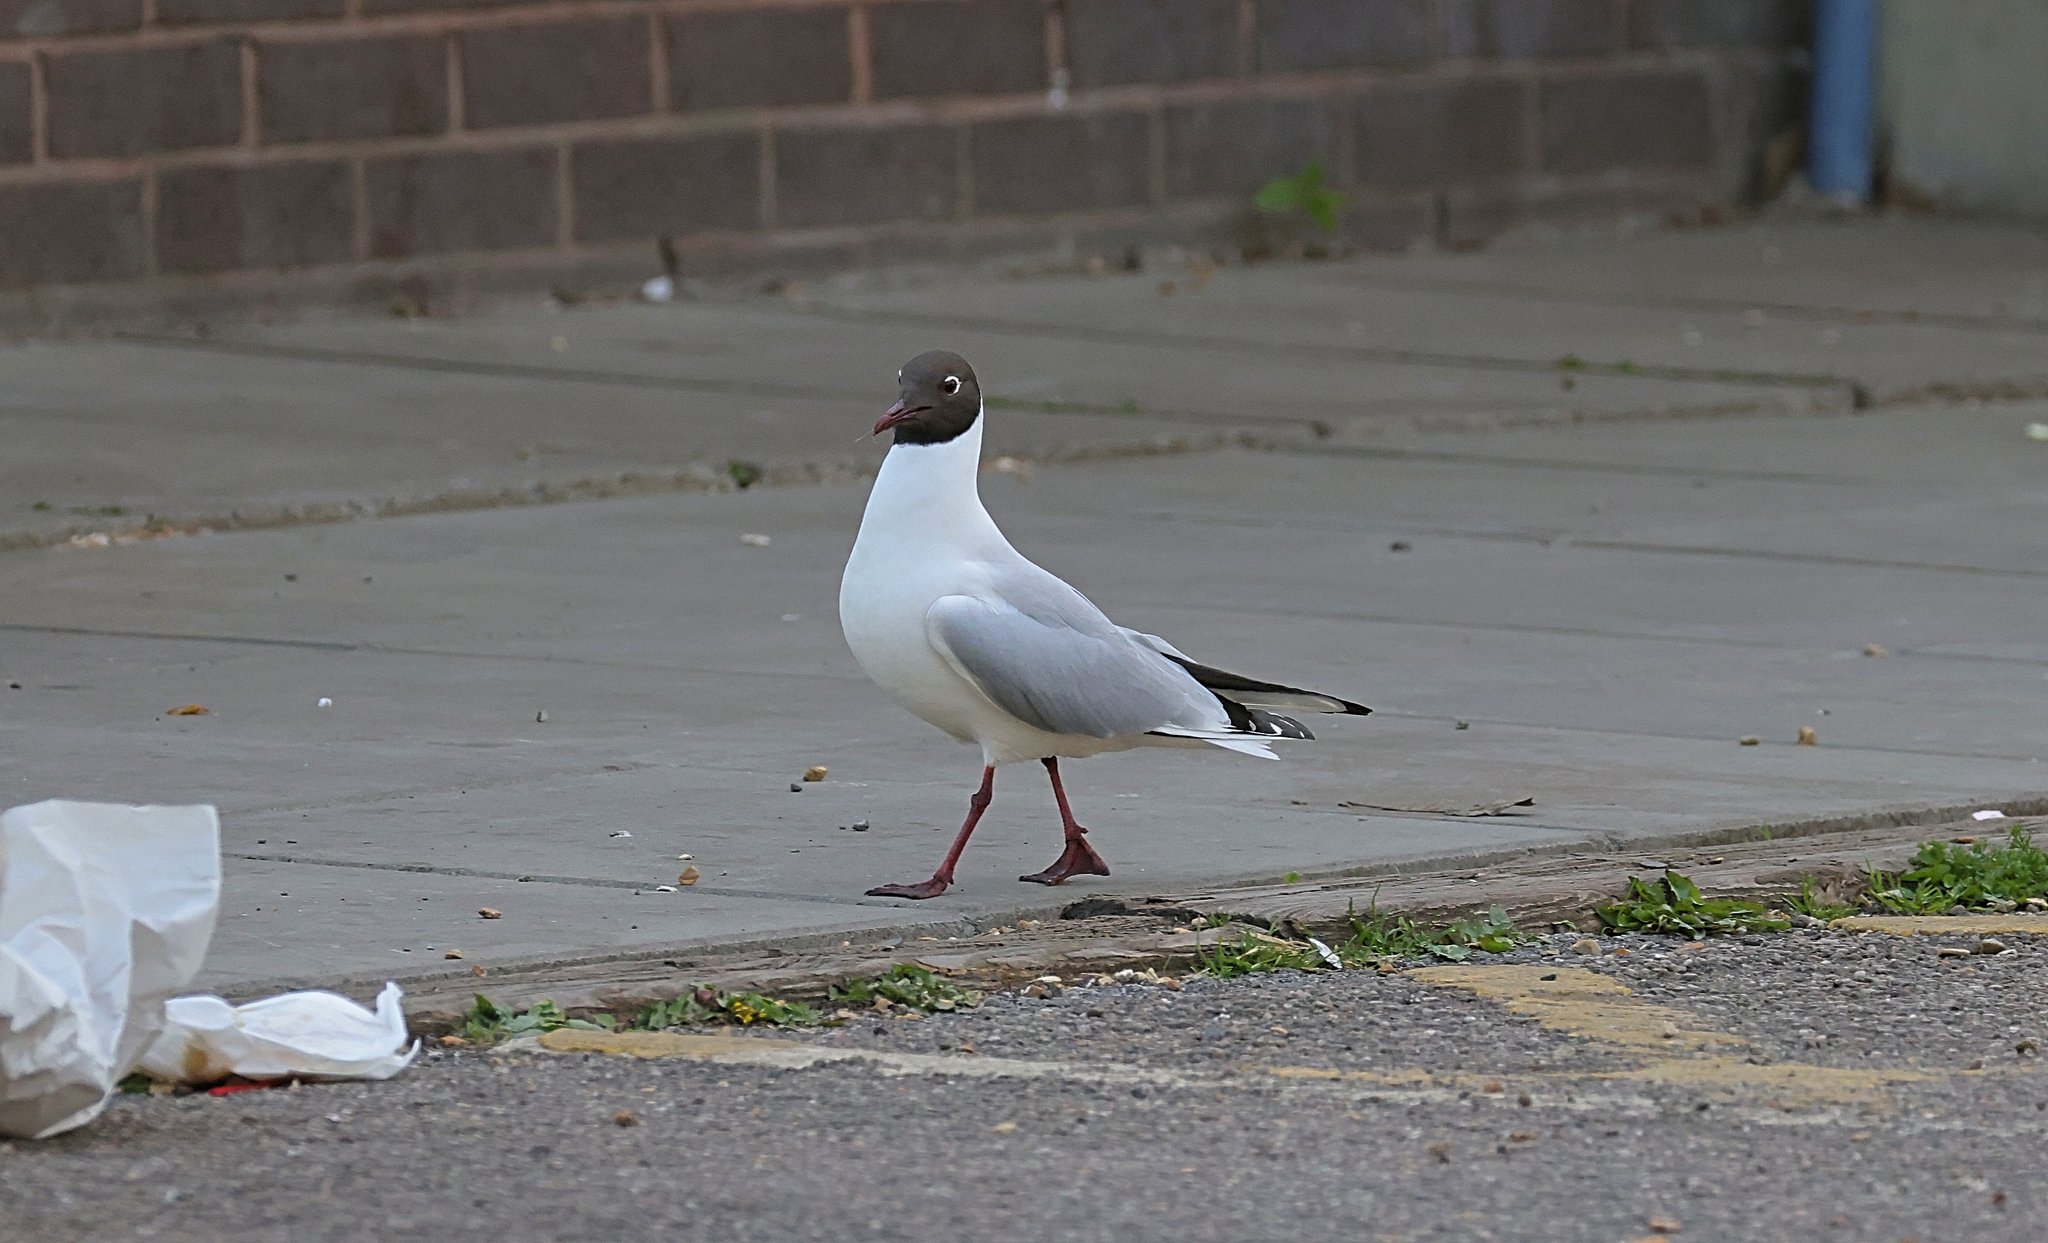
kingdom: Animalia
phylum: Chordata
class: Aves
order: Charadriiformes
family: Laridae
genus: Chroicocephalus
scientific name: Chroicocephalus ridibundus
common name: Black-headed gull
